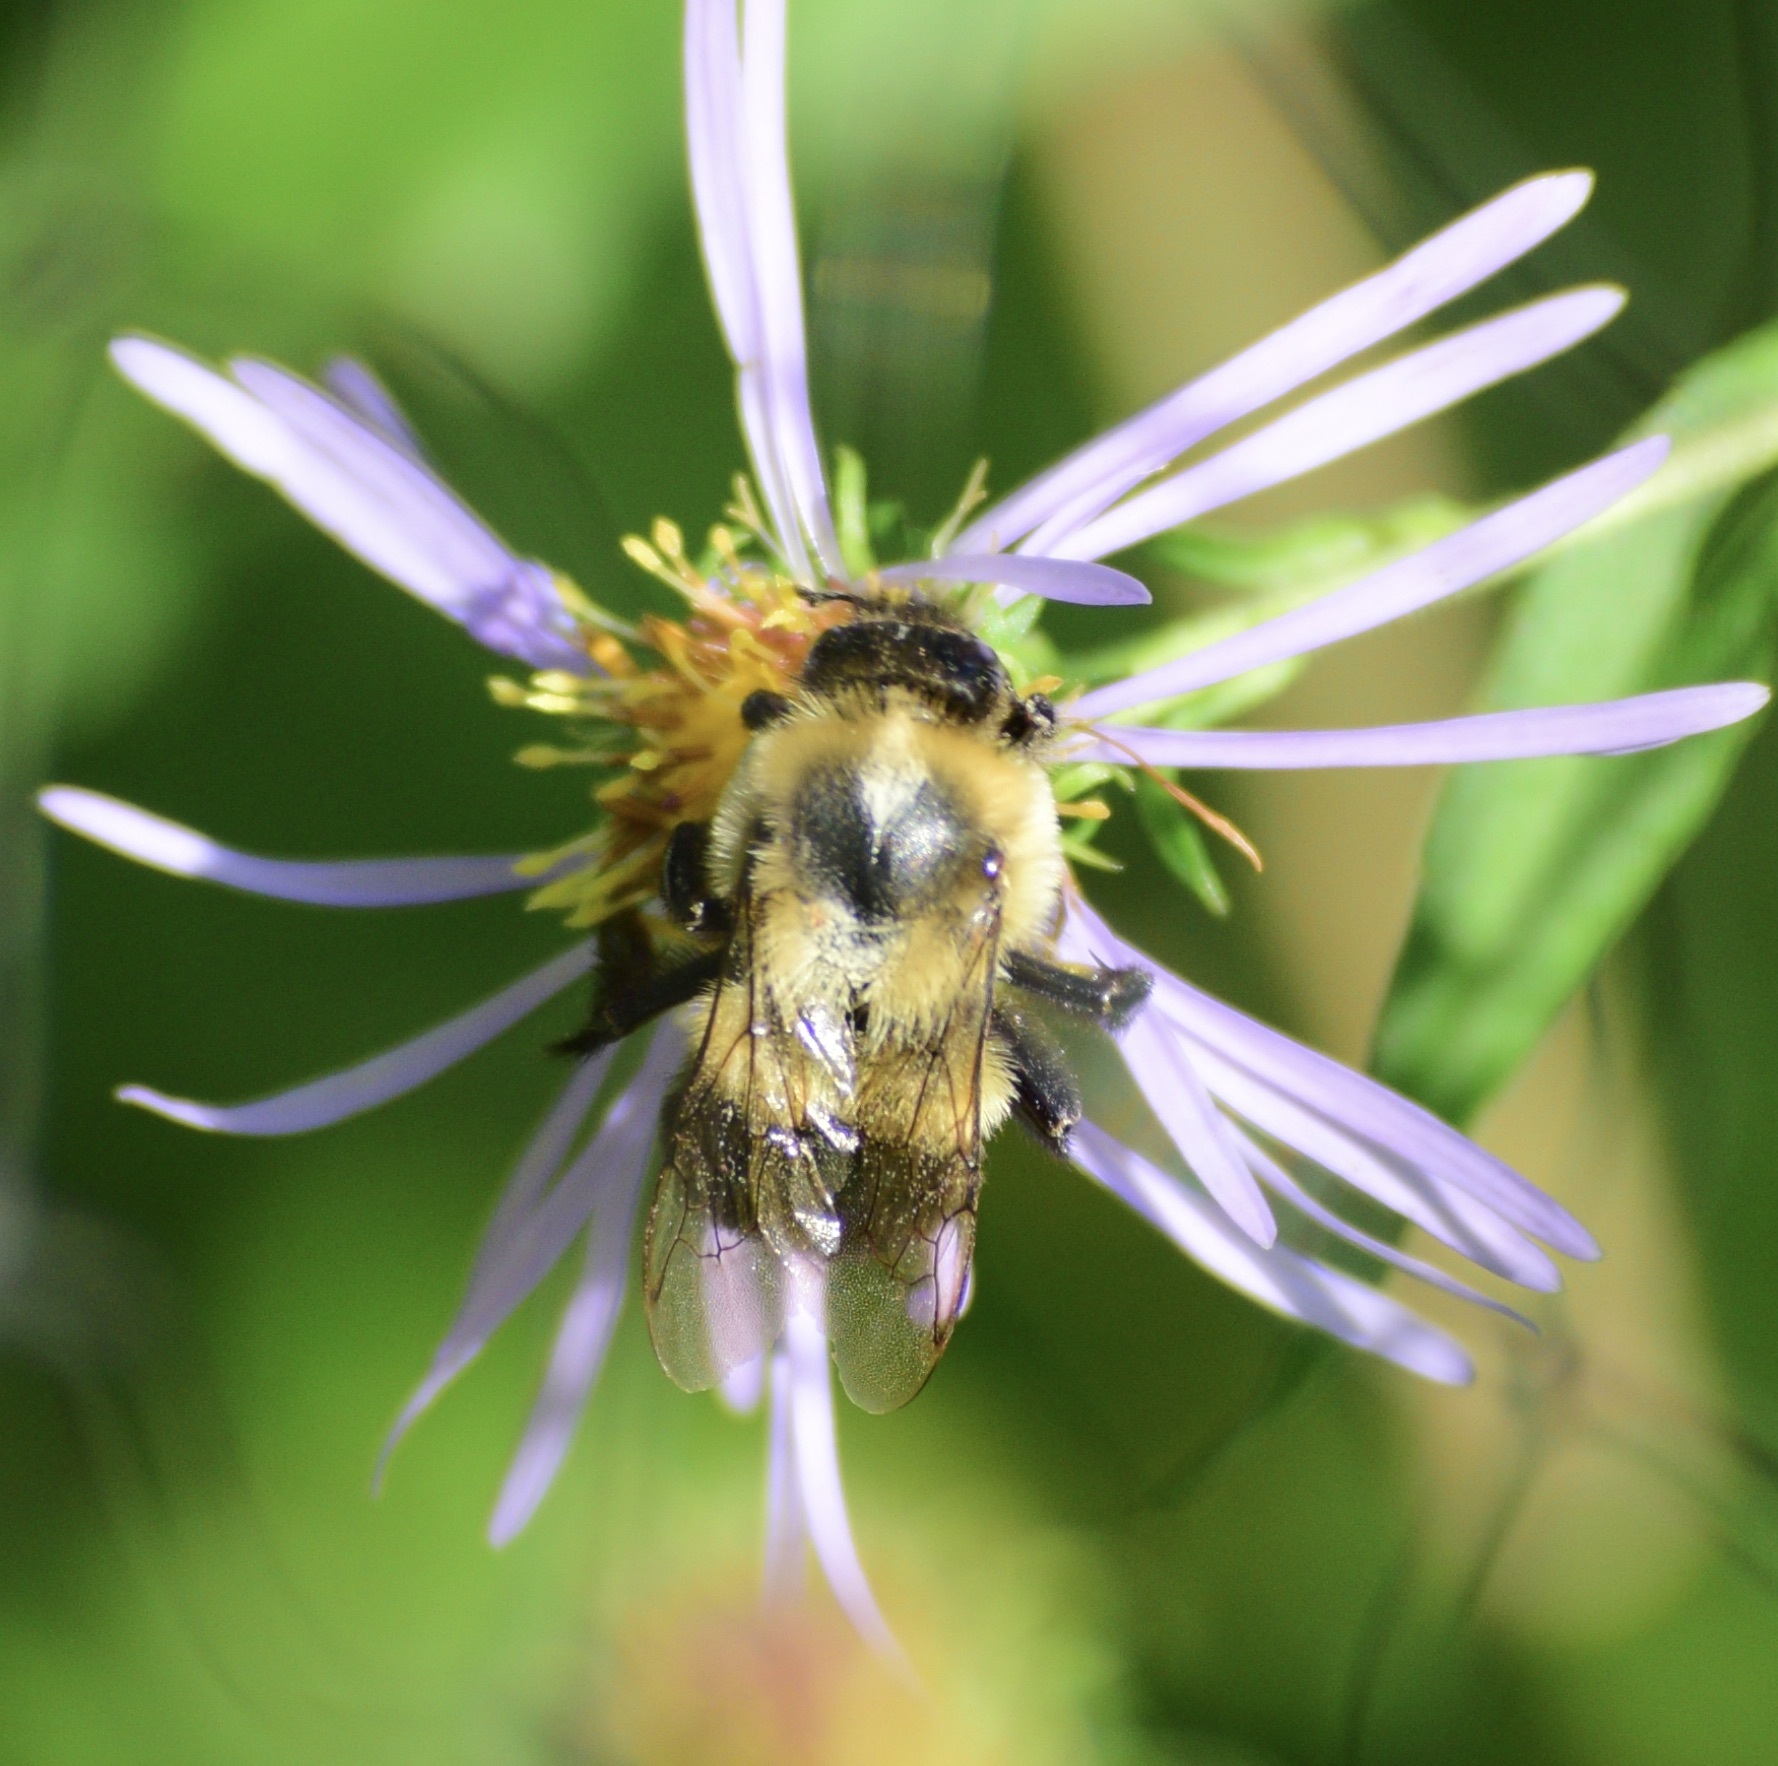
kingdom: Animalia
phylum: Arthropoda
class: Insecta
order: Hymenoptera
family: Apidae
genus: Bombus
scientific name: Bombus impatiens
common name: Common eastern bumble bee
